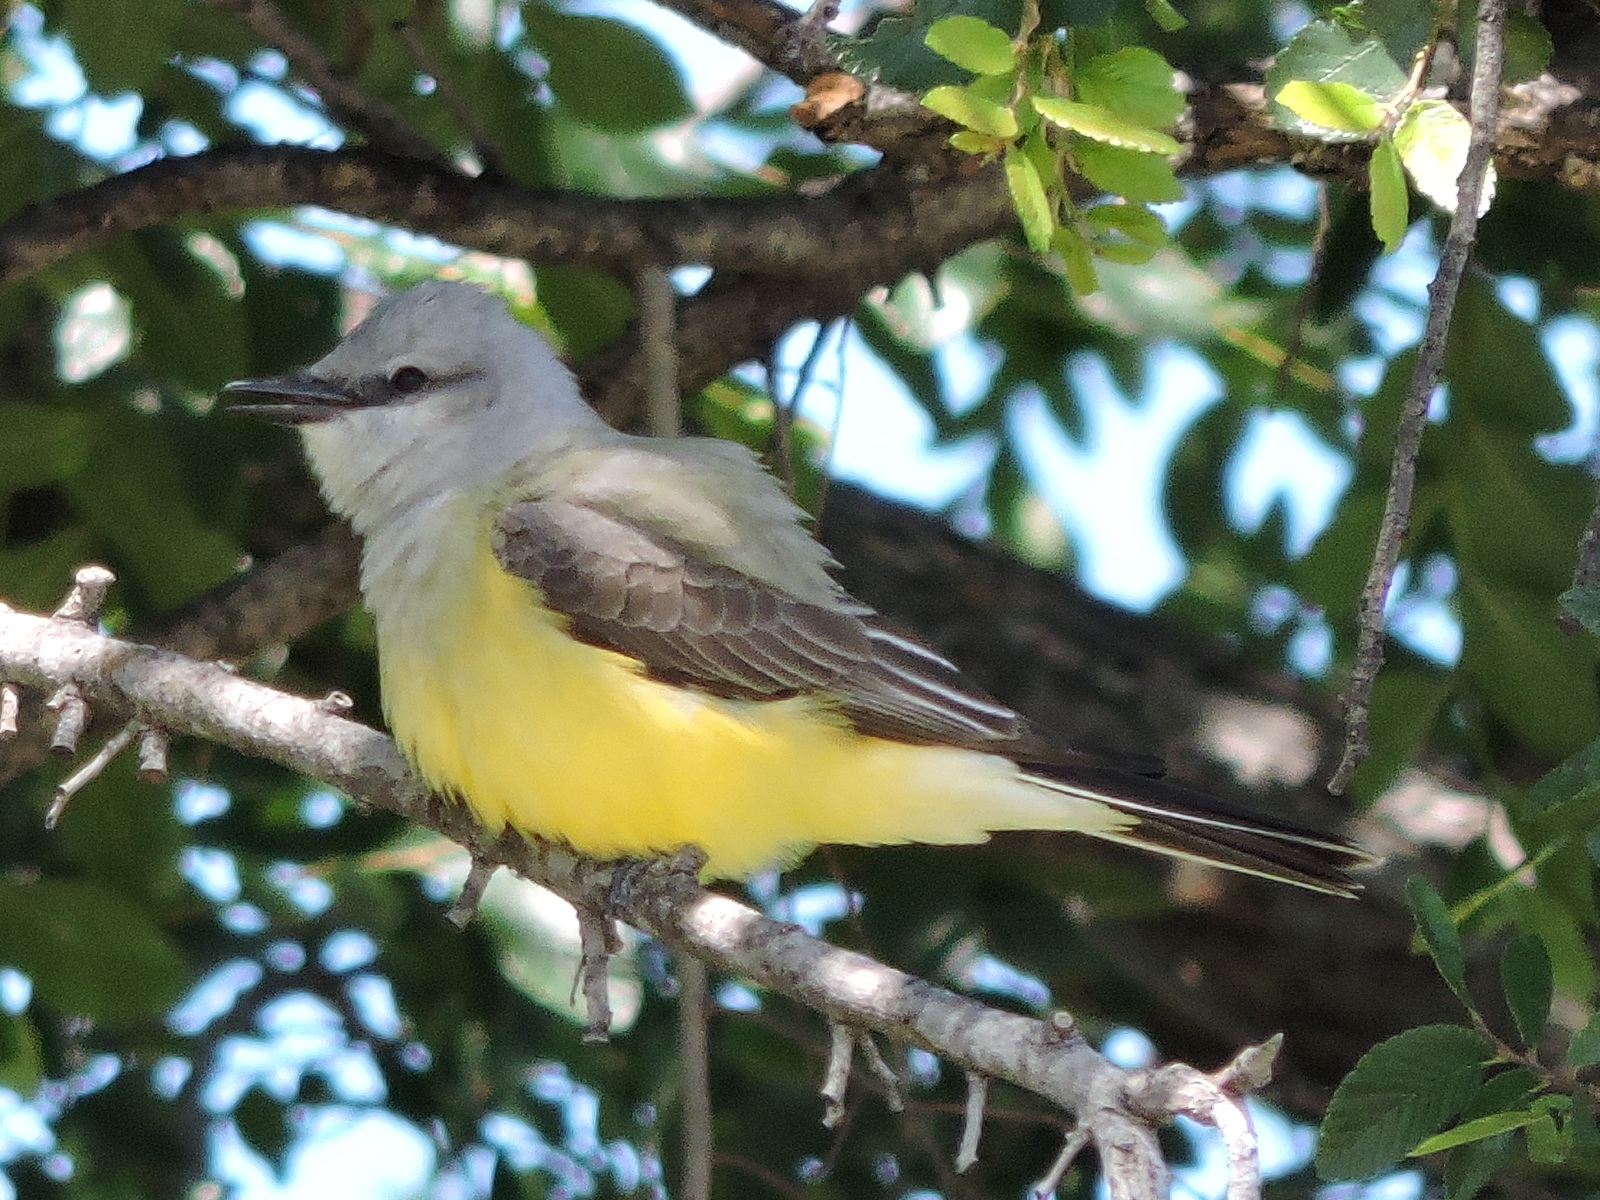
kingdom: Animalia
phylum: Chordata
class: Aves
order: Passeriformes
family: Tyrannidae
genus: Tyrannus
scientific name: Tyrannus verticalis
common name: Western kingbird
